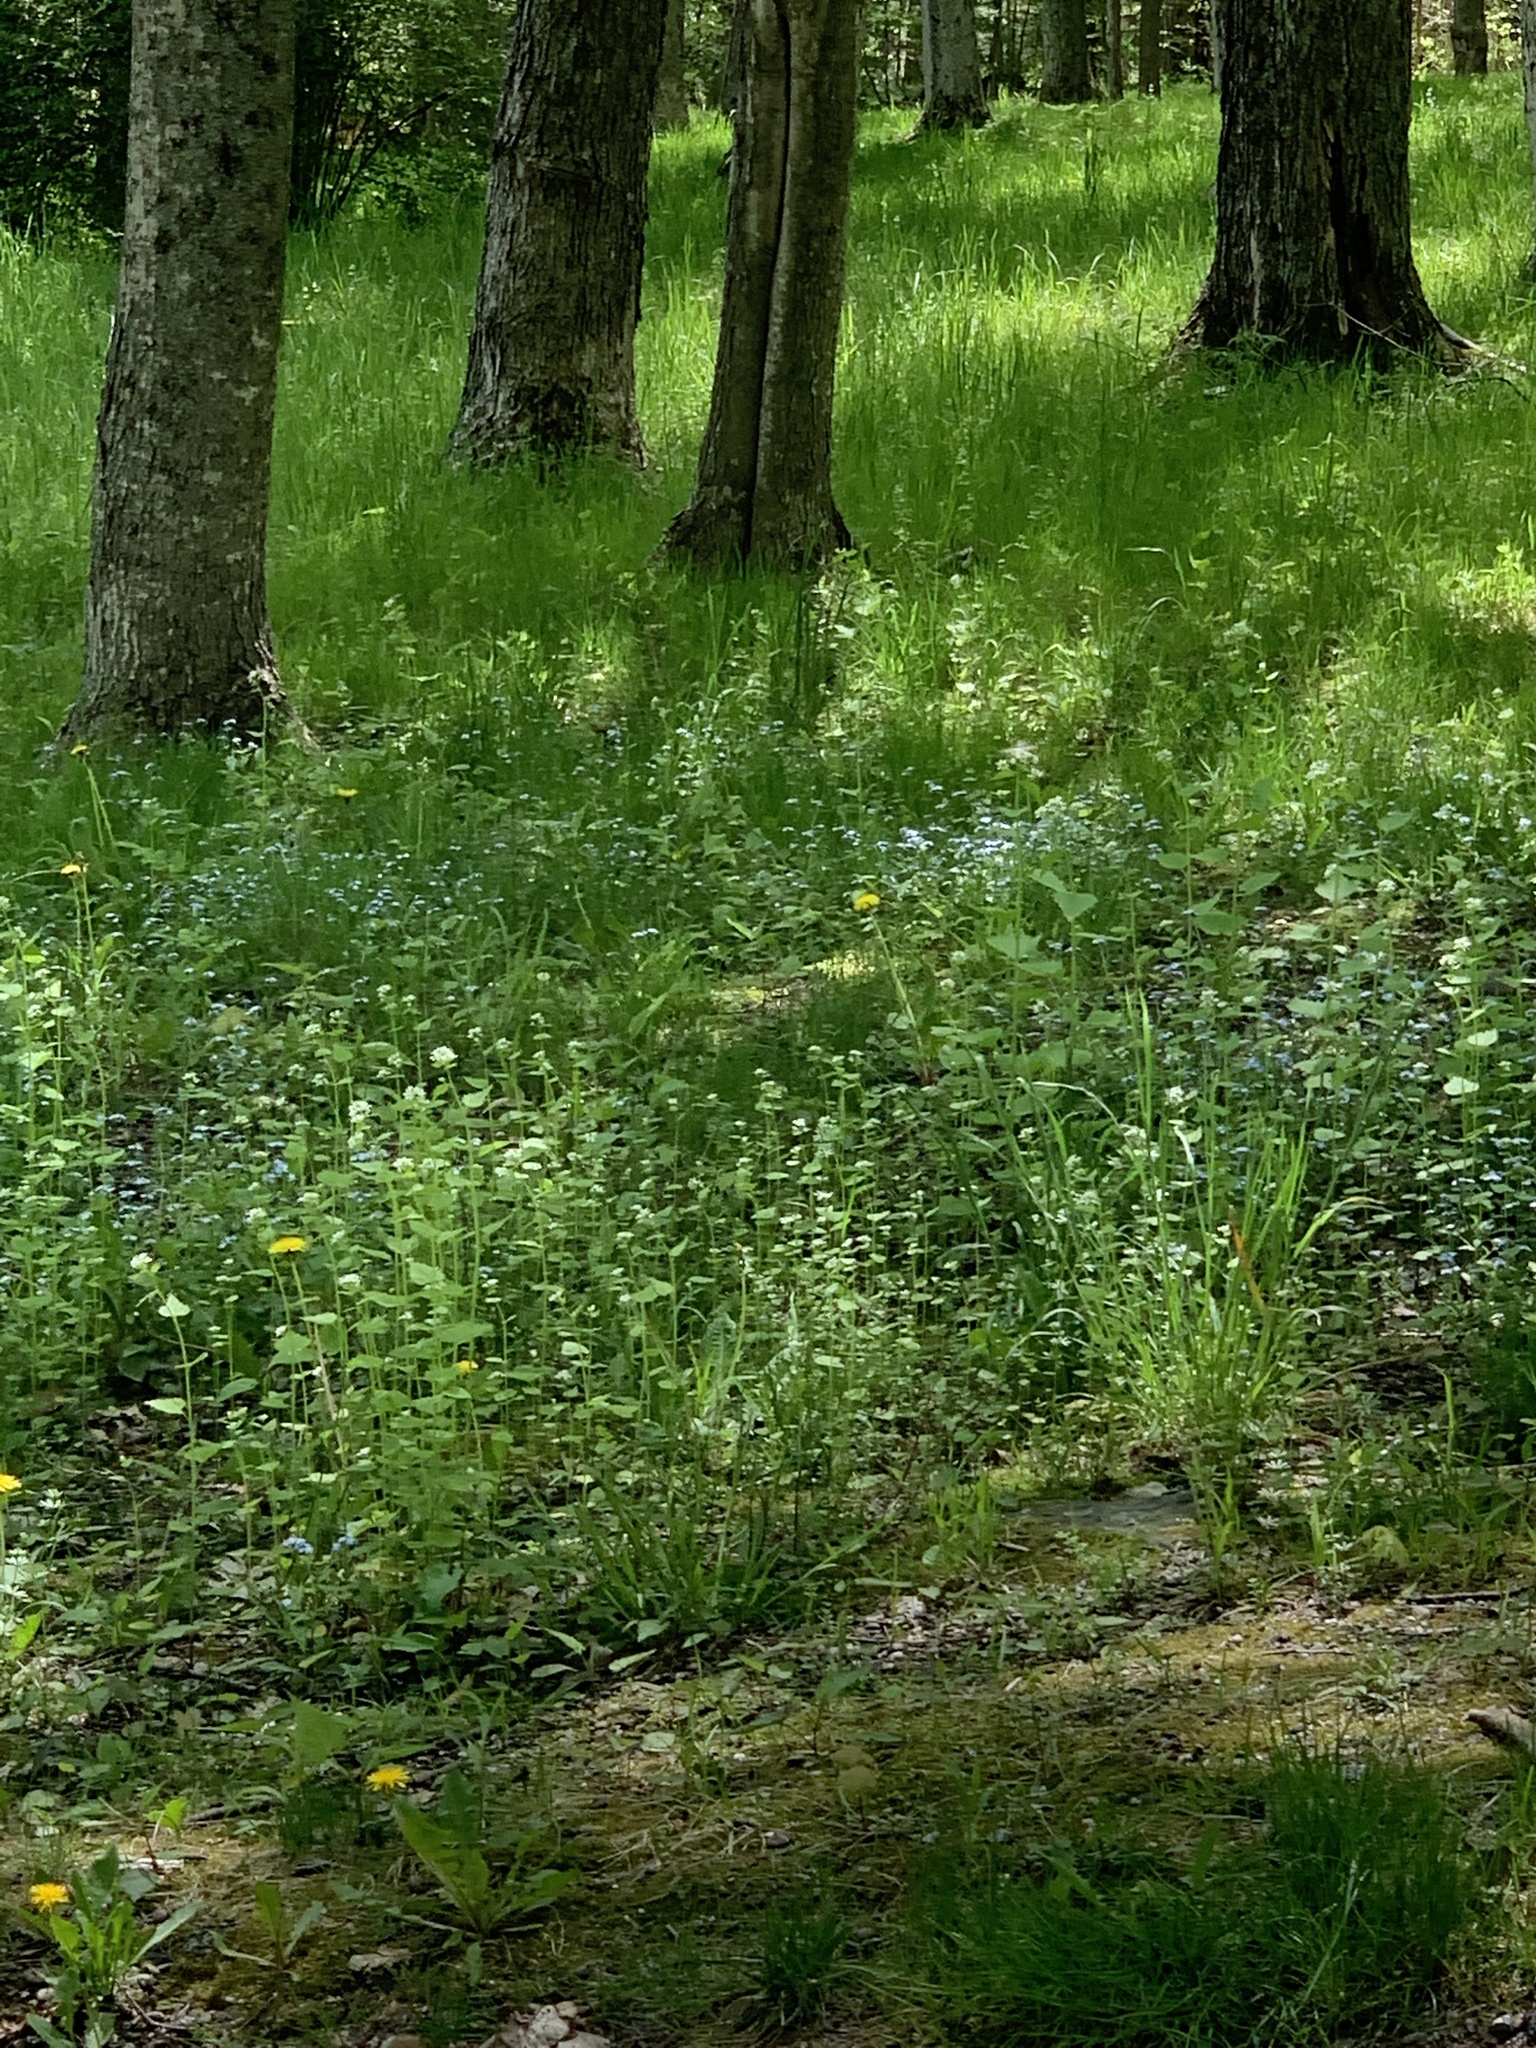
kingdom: Plantae
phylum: Tracheophyta
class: Magnoliopsida
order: Brassicales
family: Brassicaceae
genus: Alliaria
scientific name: Alliaria petiolata
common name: Garlic mustard
